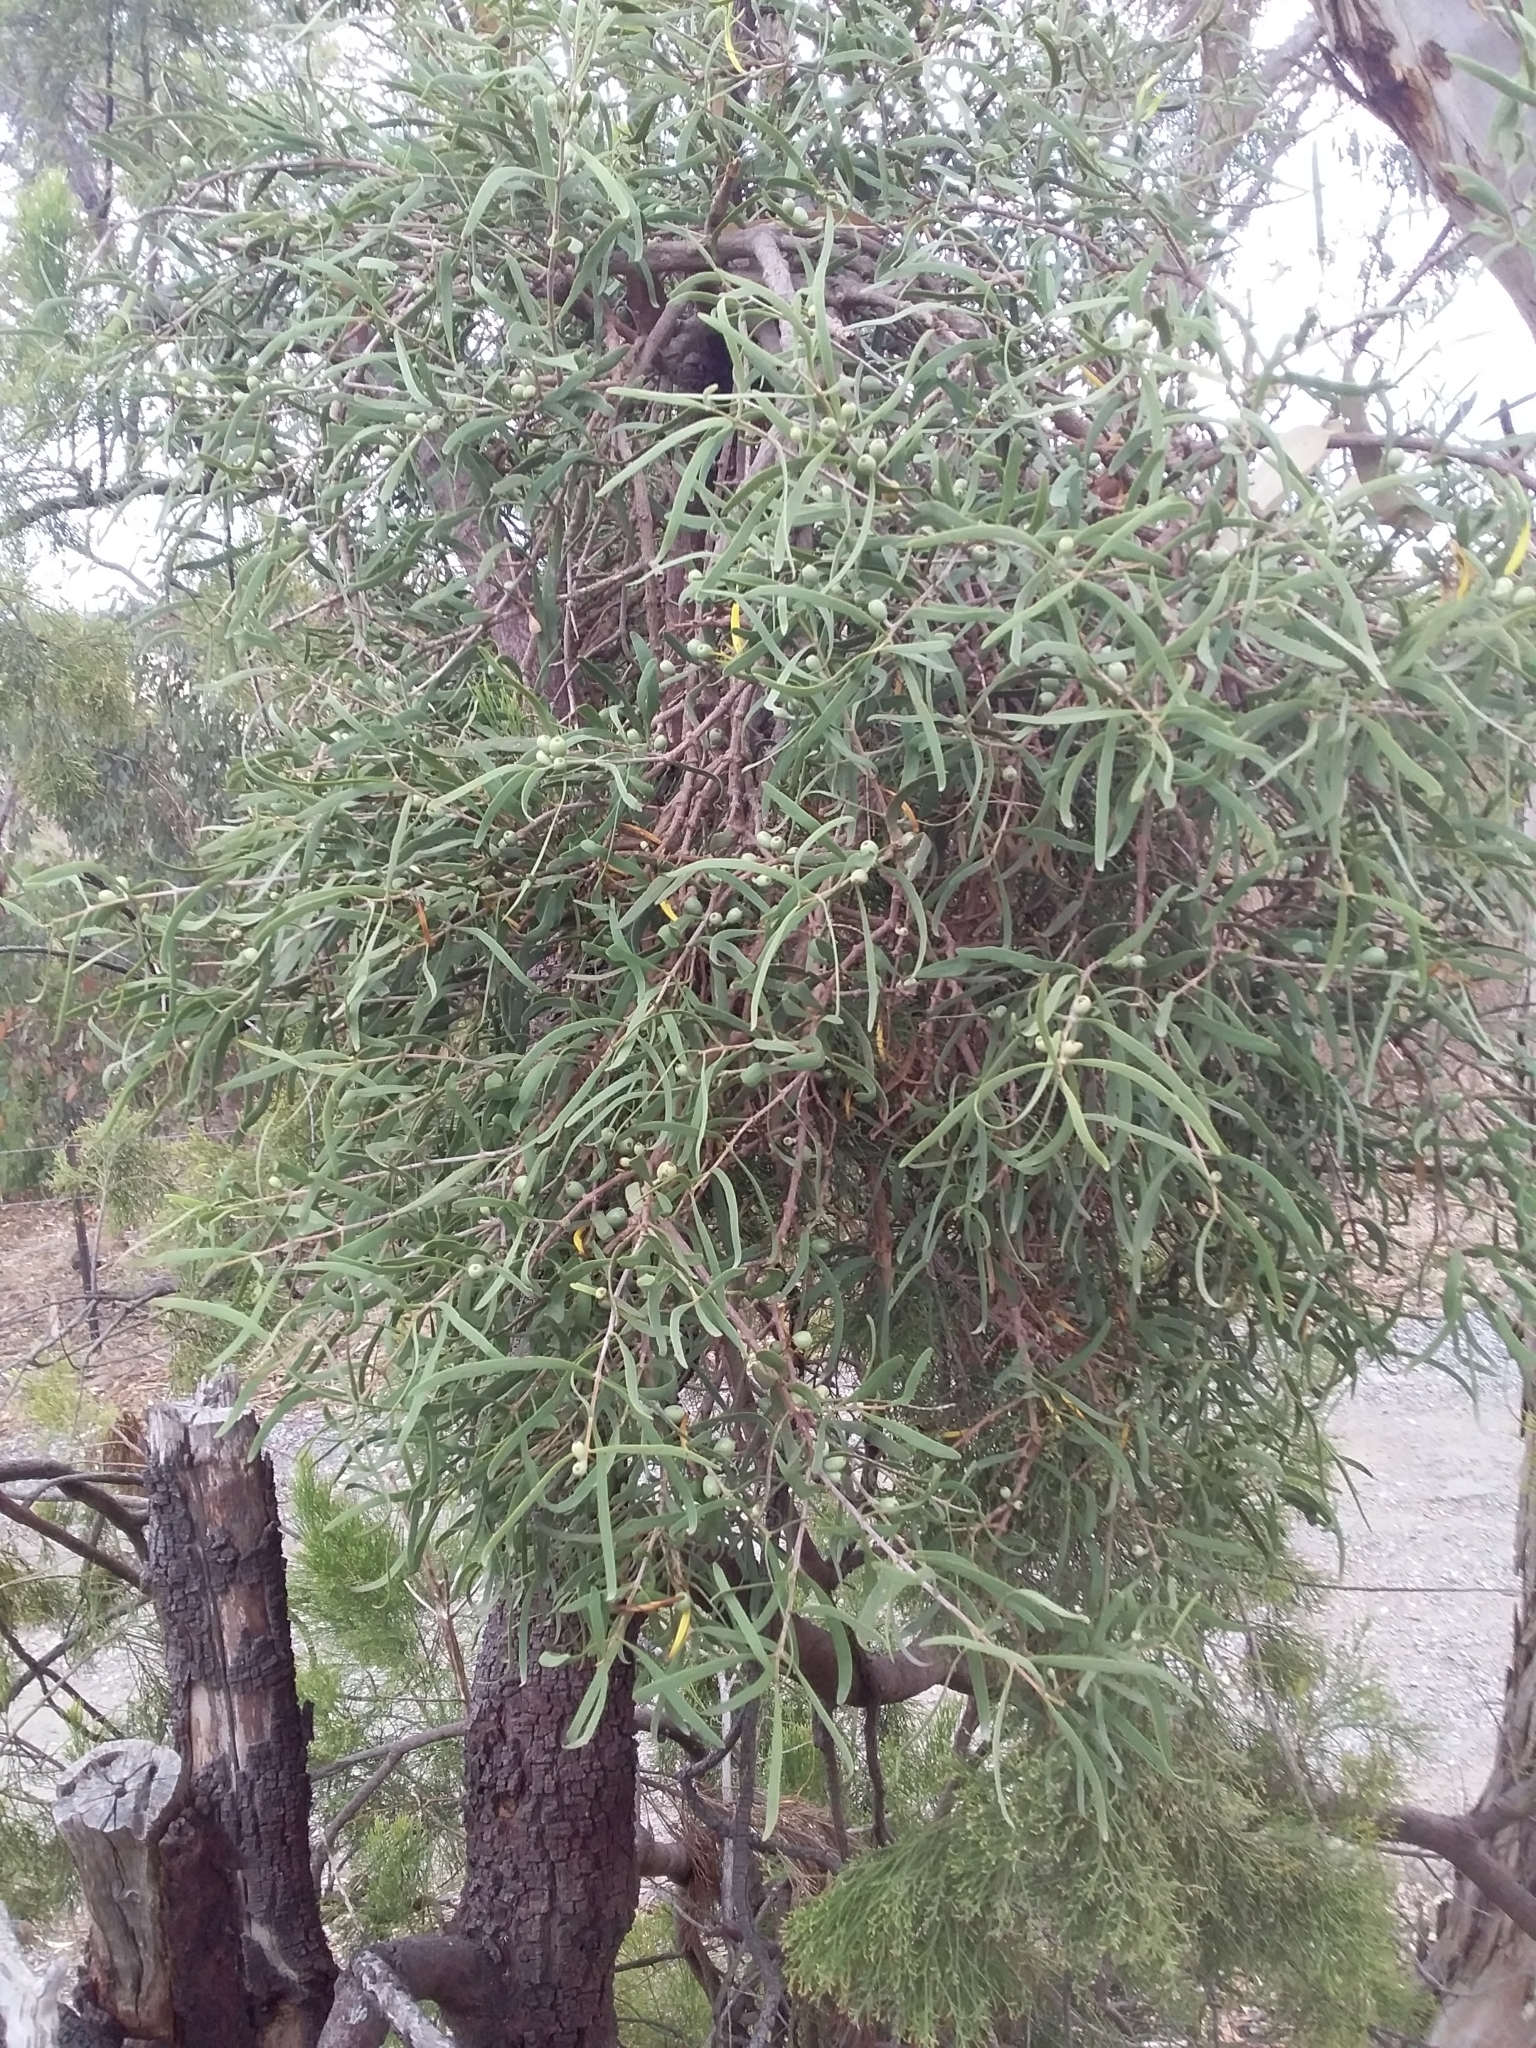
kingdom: Plantae
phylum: Tracheophyta
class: Magnoliopsida
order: Santalales
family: Loranthaceae
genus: Lysiana
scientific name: Lysiana exocarpi
